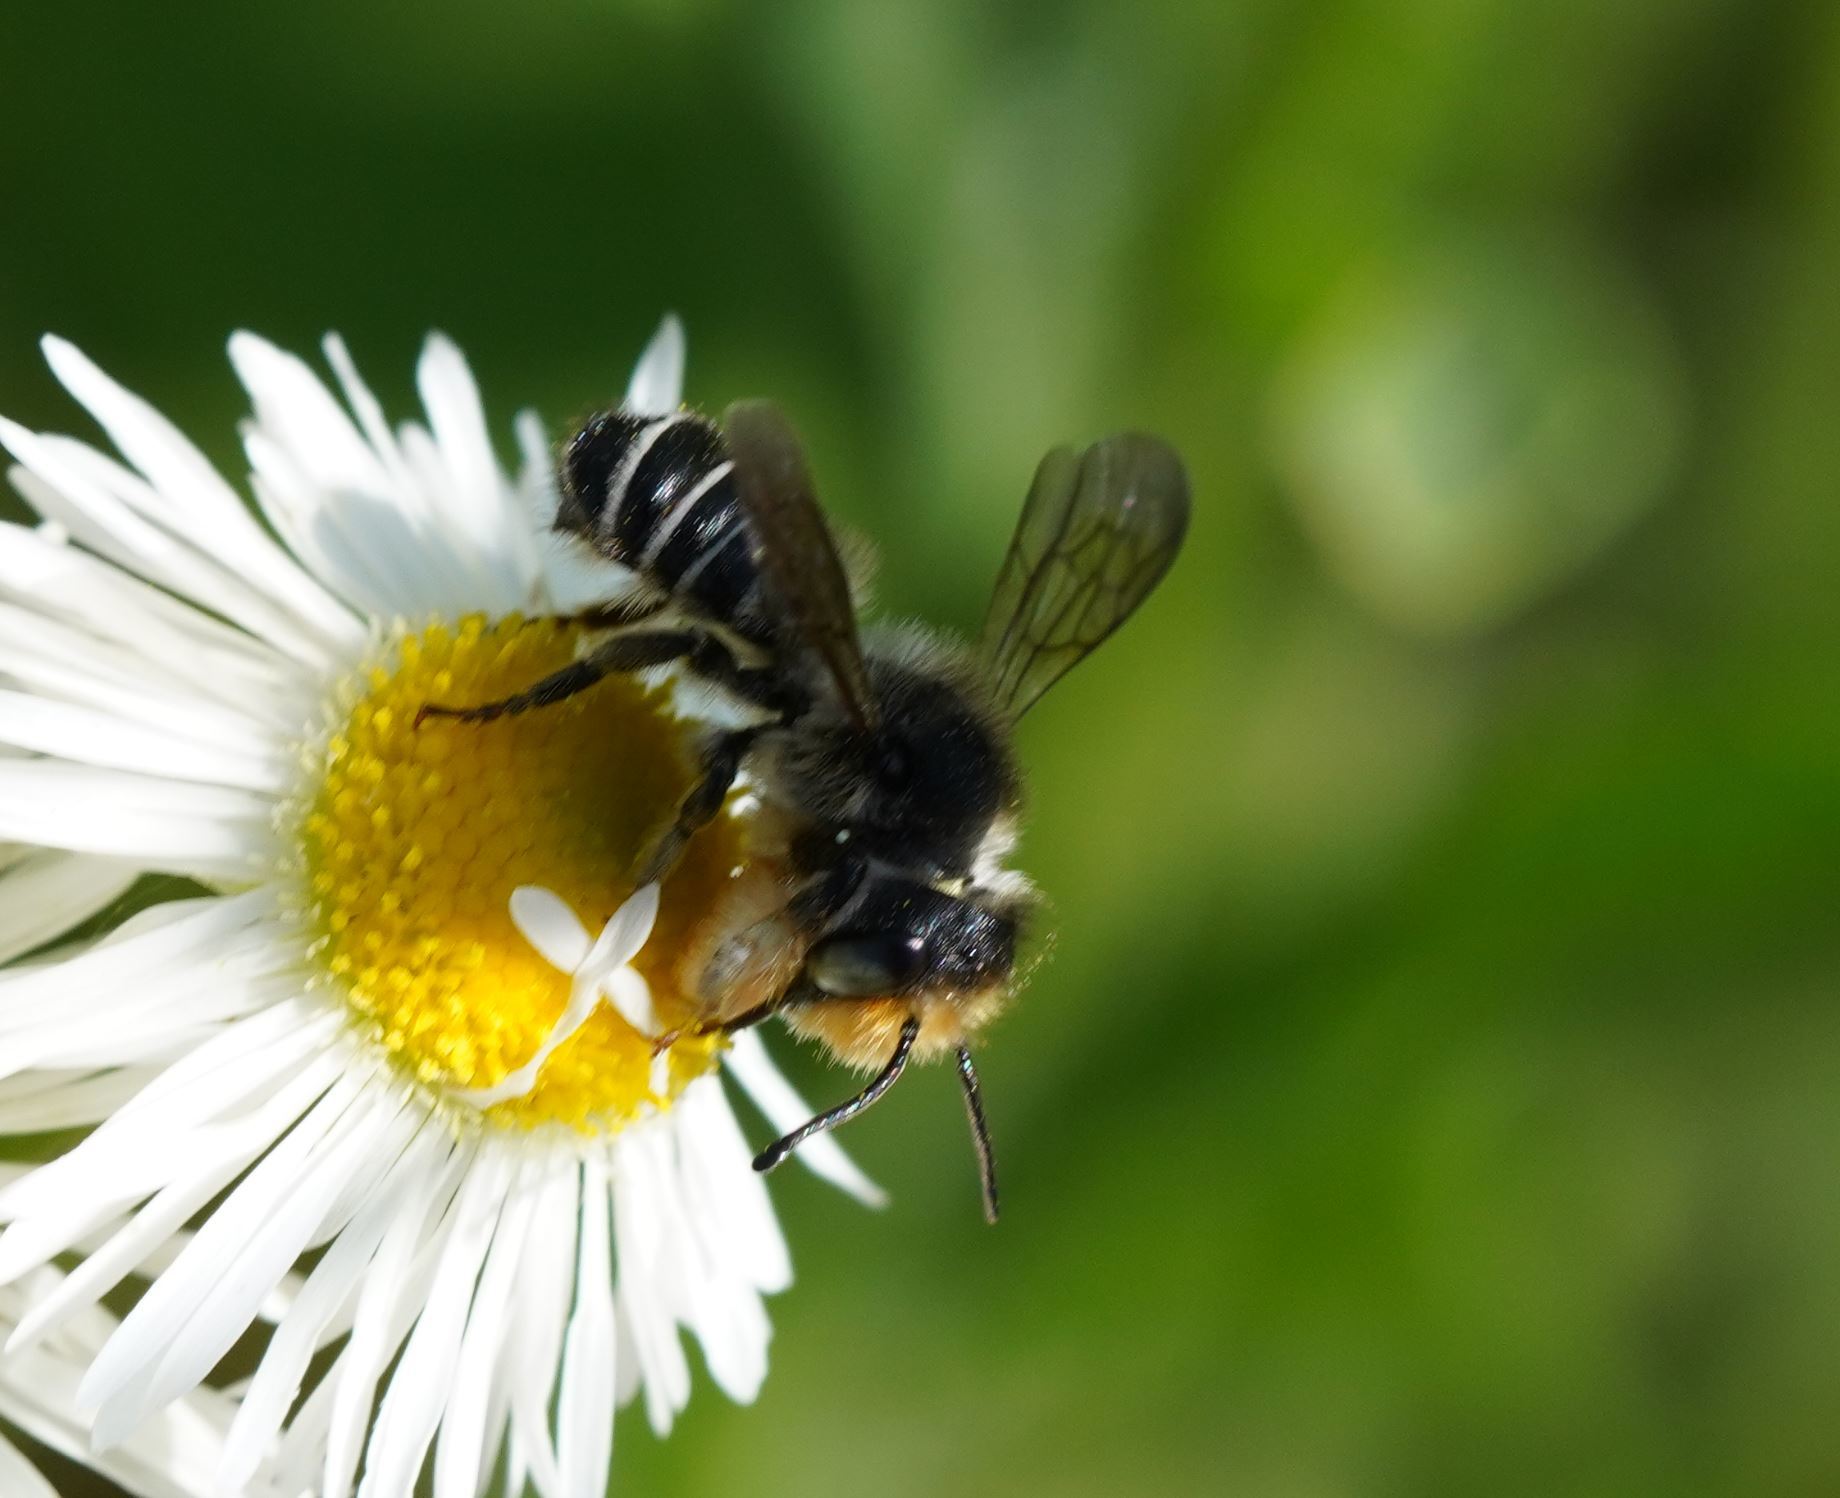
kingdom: Animalia
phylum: Arthropoda
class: Insecta
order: Hymenoptera
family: Megachilidae
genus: Megachile
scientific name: Megachile pugnata
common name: Pugnacious leafcutter bee
